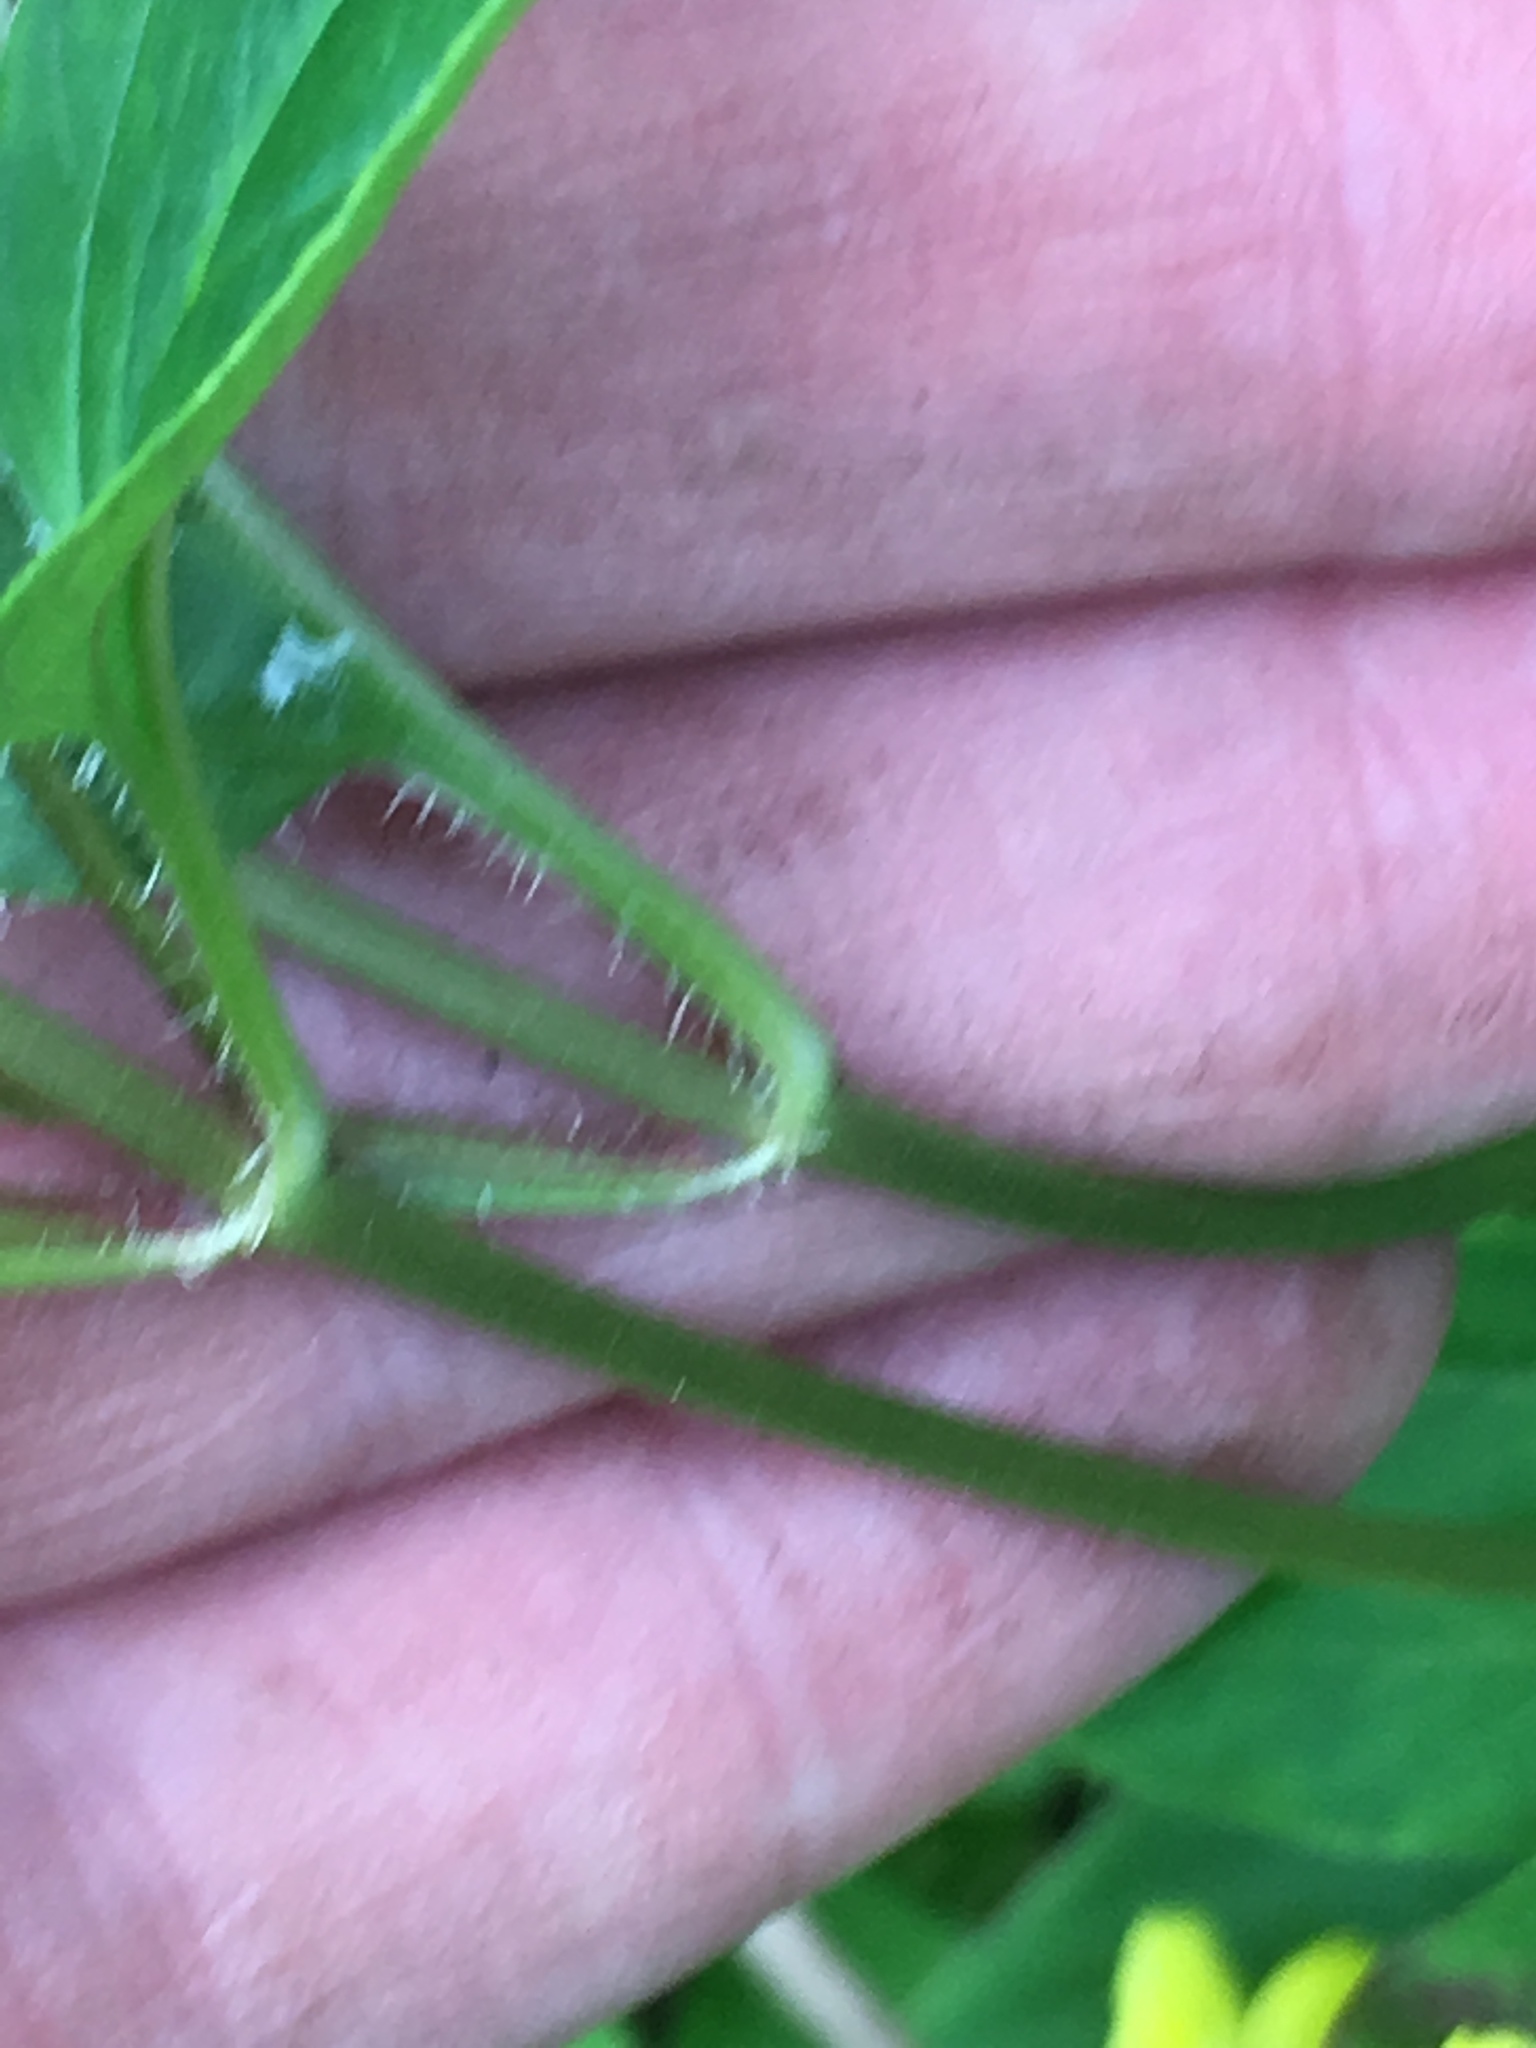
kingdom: Plantae
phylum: Tracheophyta
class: Magnoliopsida
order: Ericales
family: Primulaceae
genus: Lysimachia
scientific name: Lysimachia ciliata
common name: Fringed loosestrife
